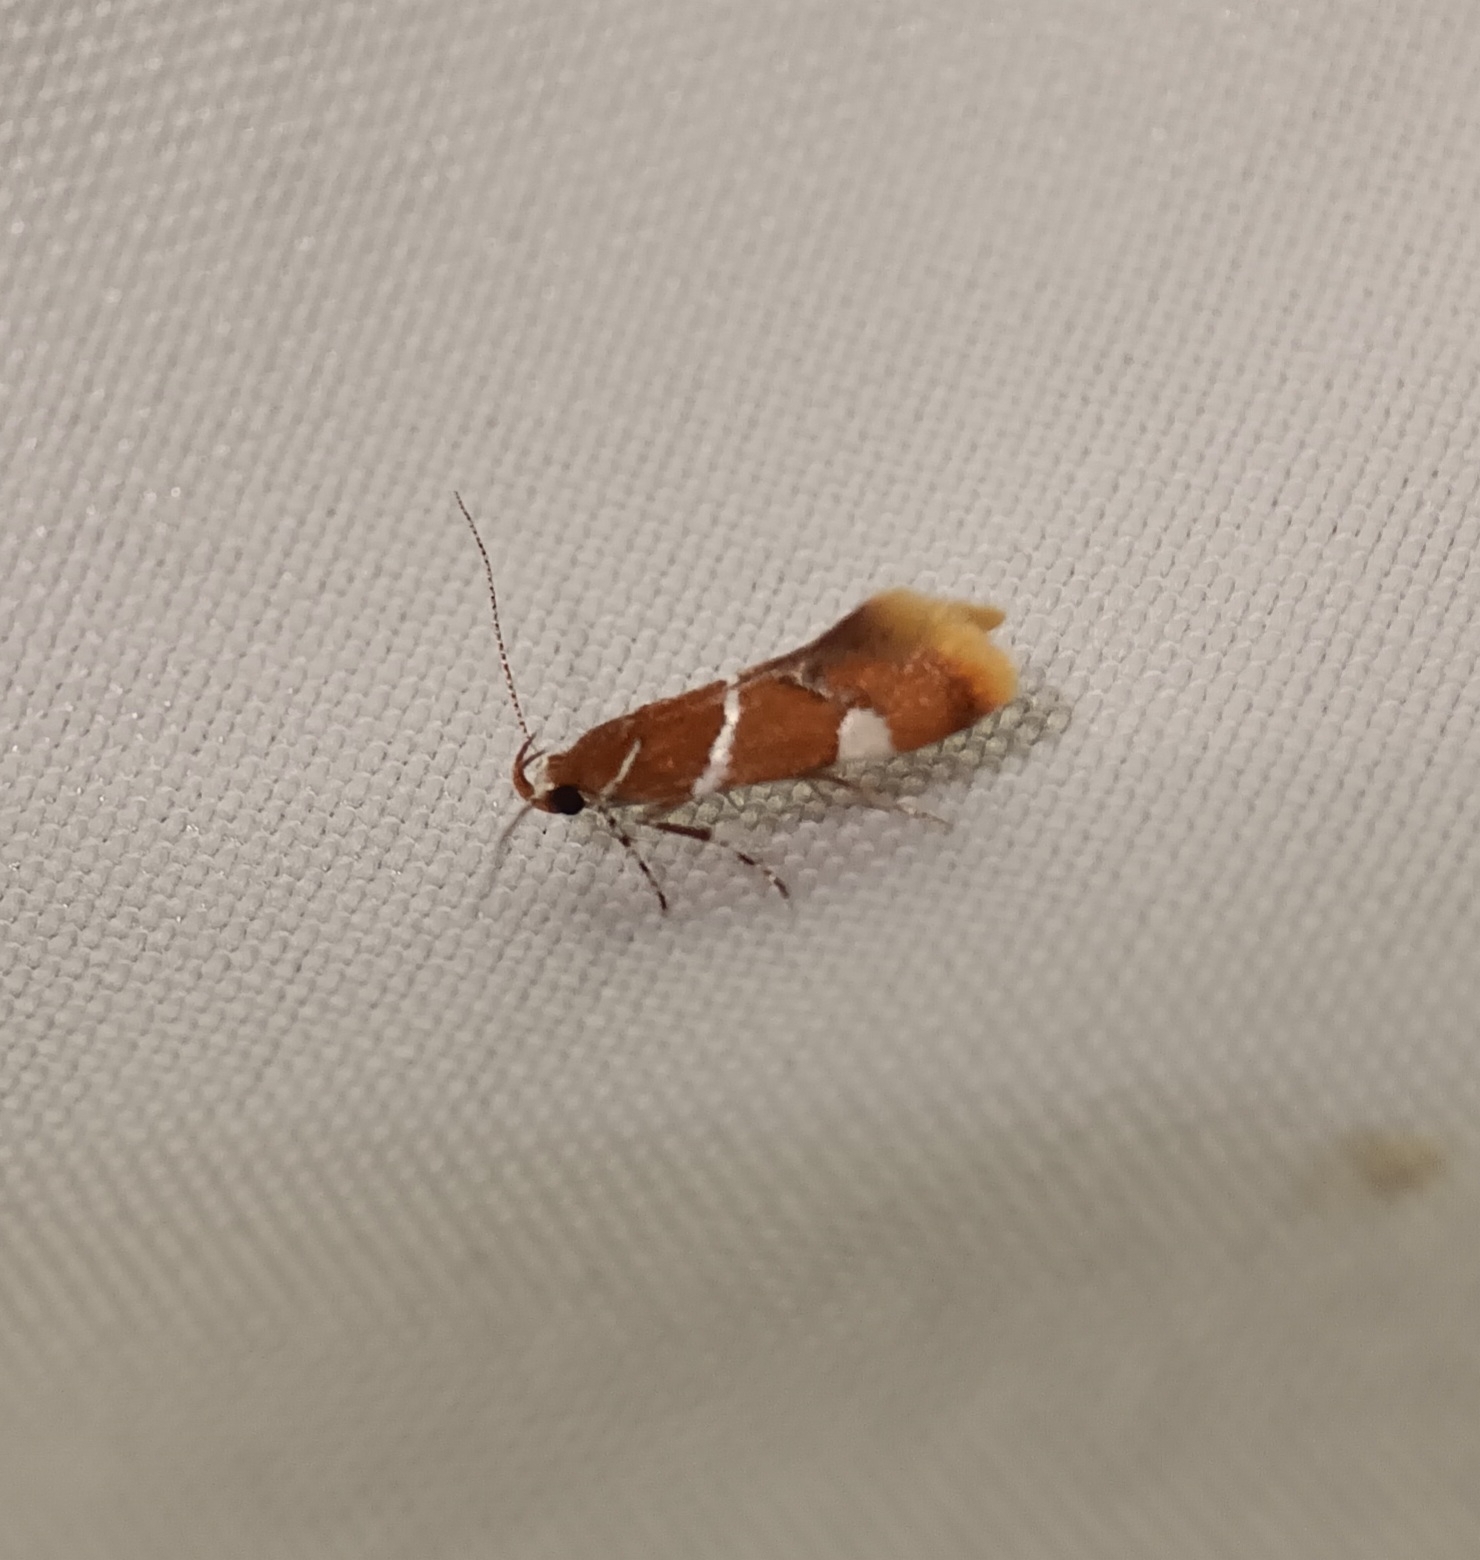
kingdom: Animalia
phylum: Arthropoda
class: Insecta
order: Lepidoptera
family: Oecophoridae
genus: Promalactis
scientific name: Promalactis suzukiella
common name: Moth
